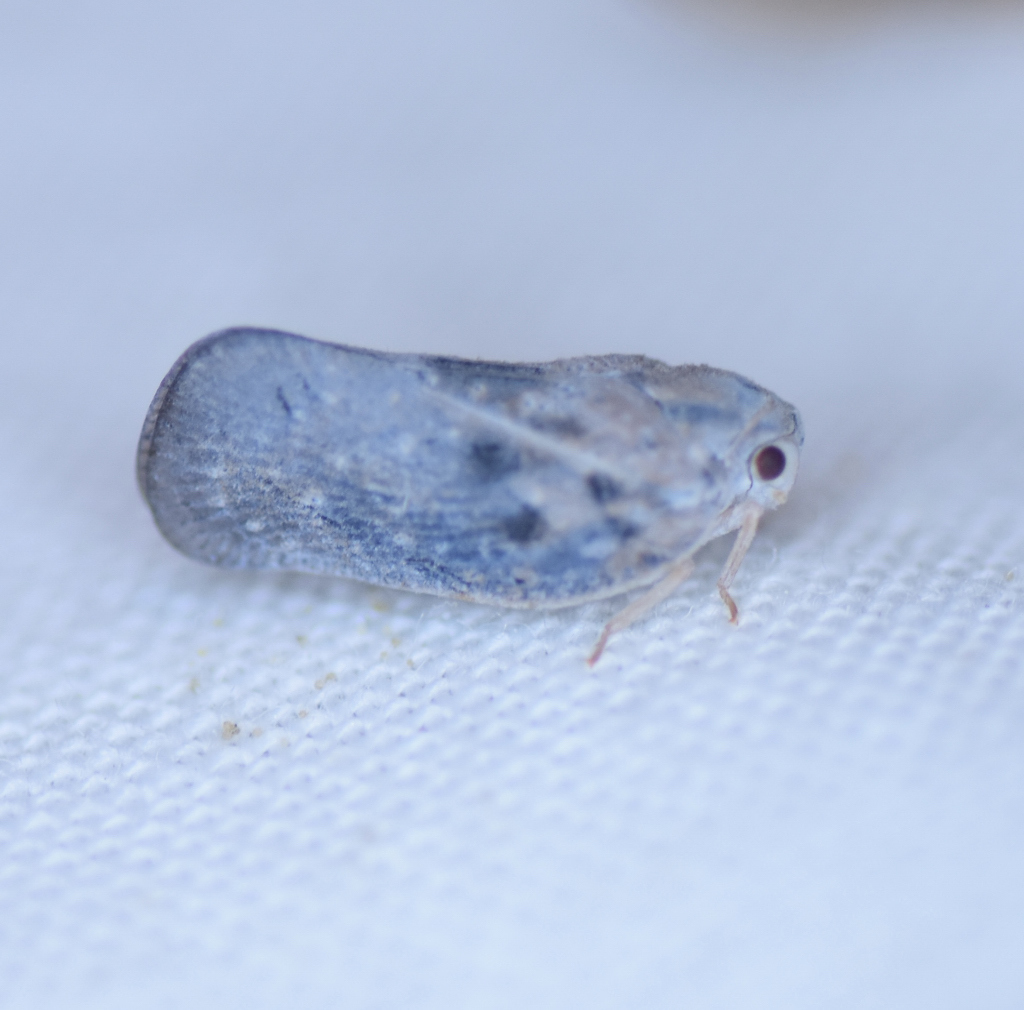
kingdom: Animalia
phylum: Arthropoda
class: Insecta
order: Hemiptera
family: Flatidae
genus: Metcalfa
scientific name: Metcalfa pruinosa
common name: Citrus flatid planthopper
